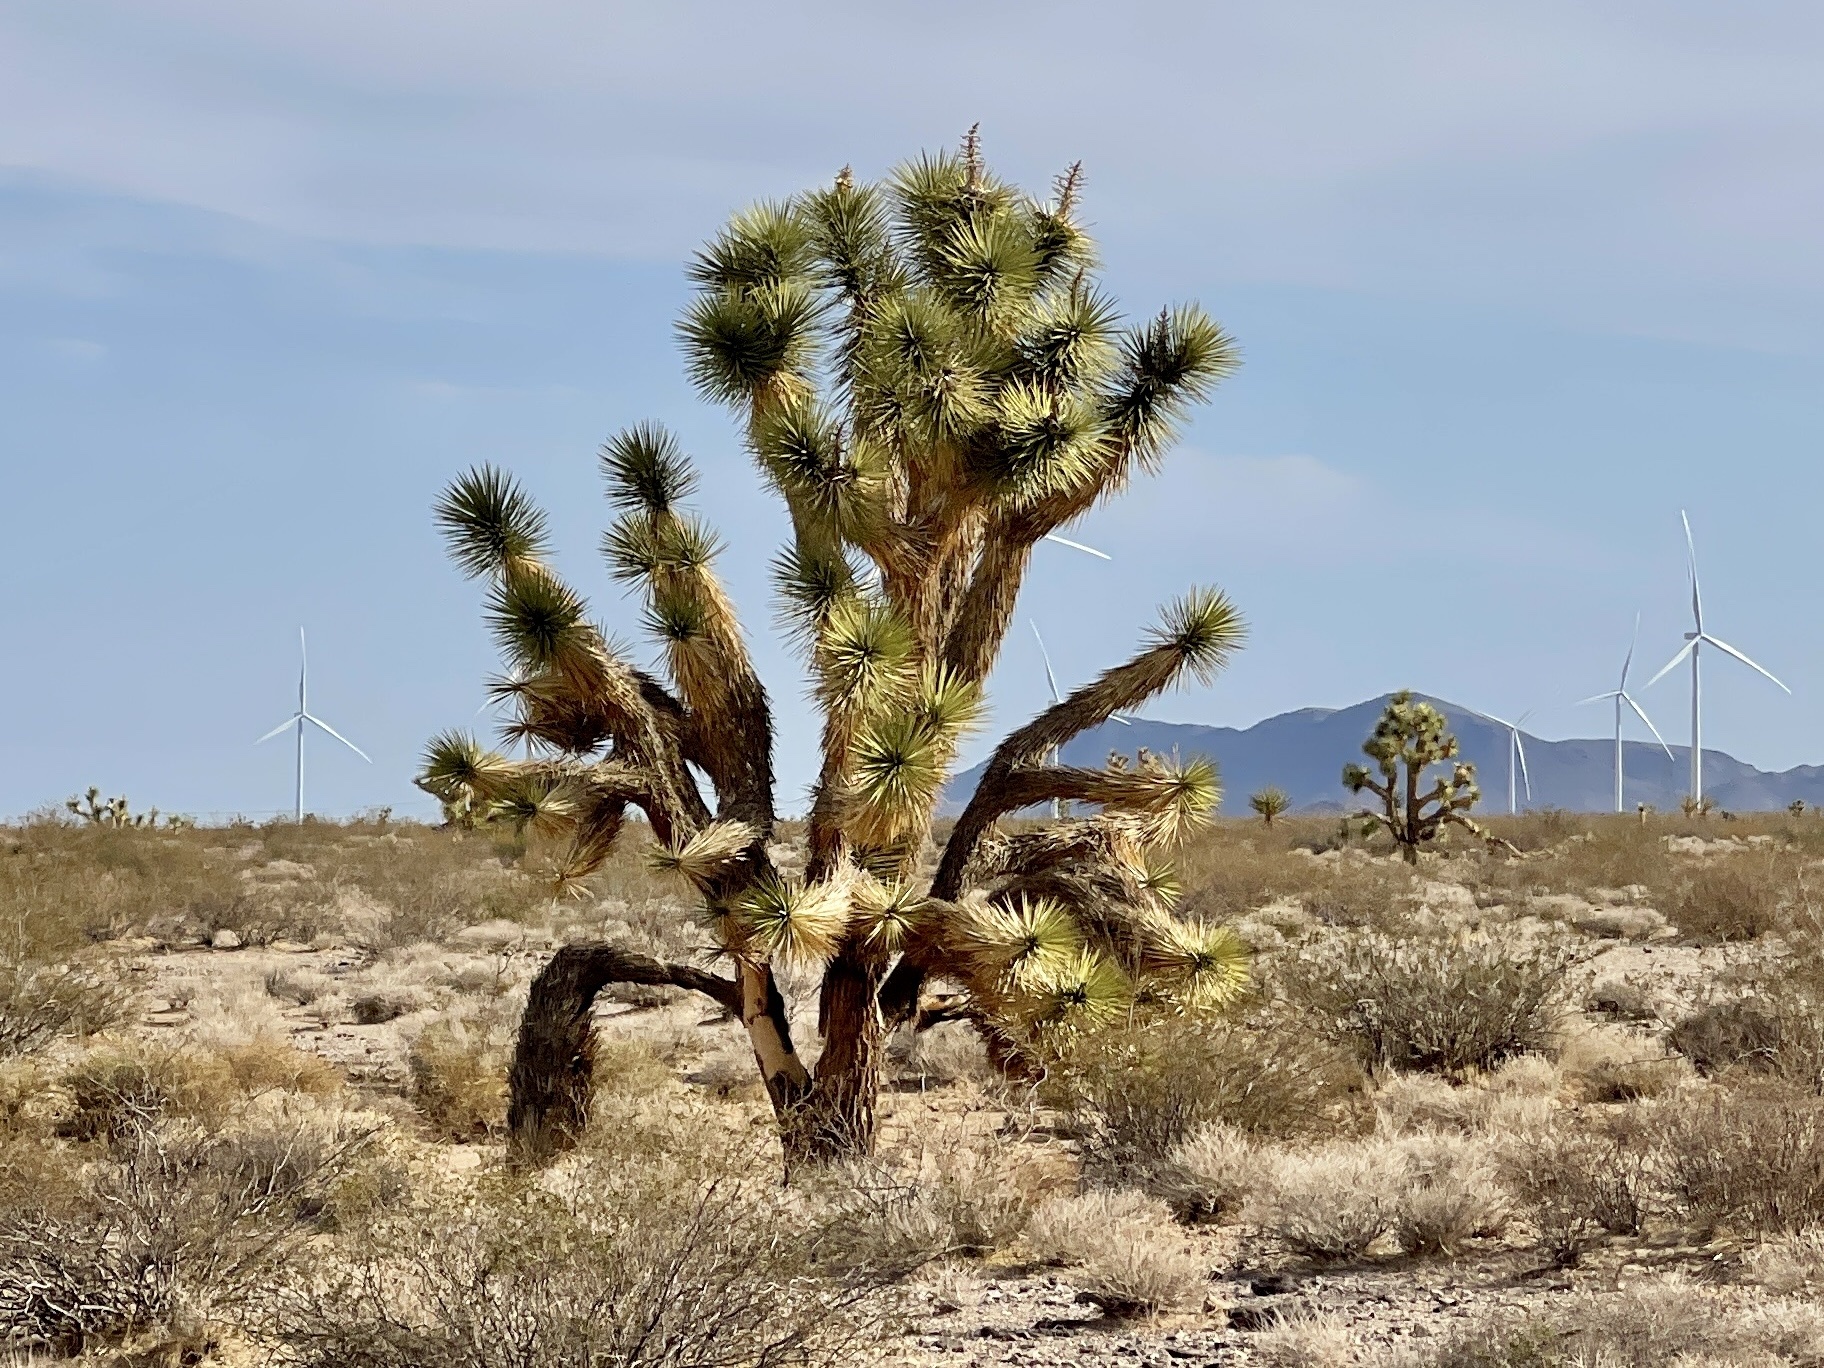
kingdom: Plantae
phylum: Tracheophyta
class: Liliopsida
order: Asparagales
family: Asparagaceae
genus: Yucca
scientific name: Yucca brevifolia
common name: Joshua tree
